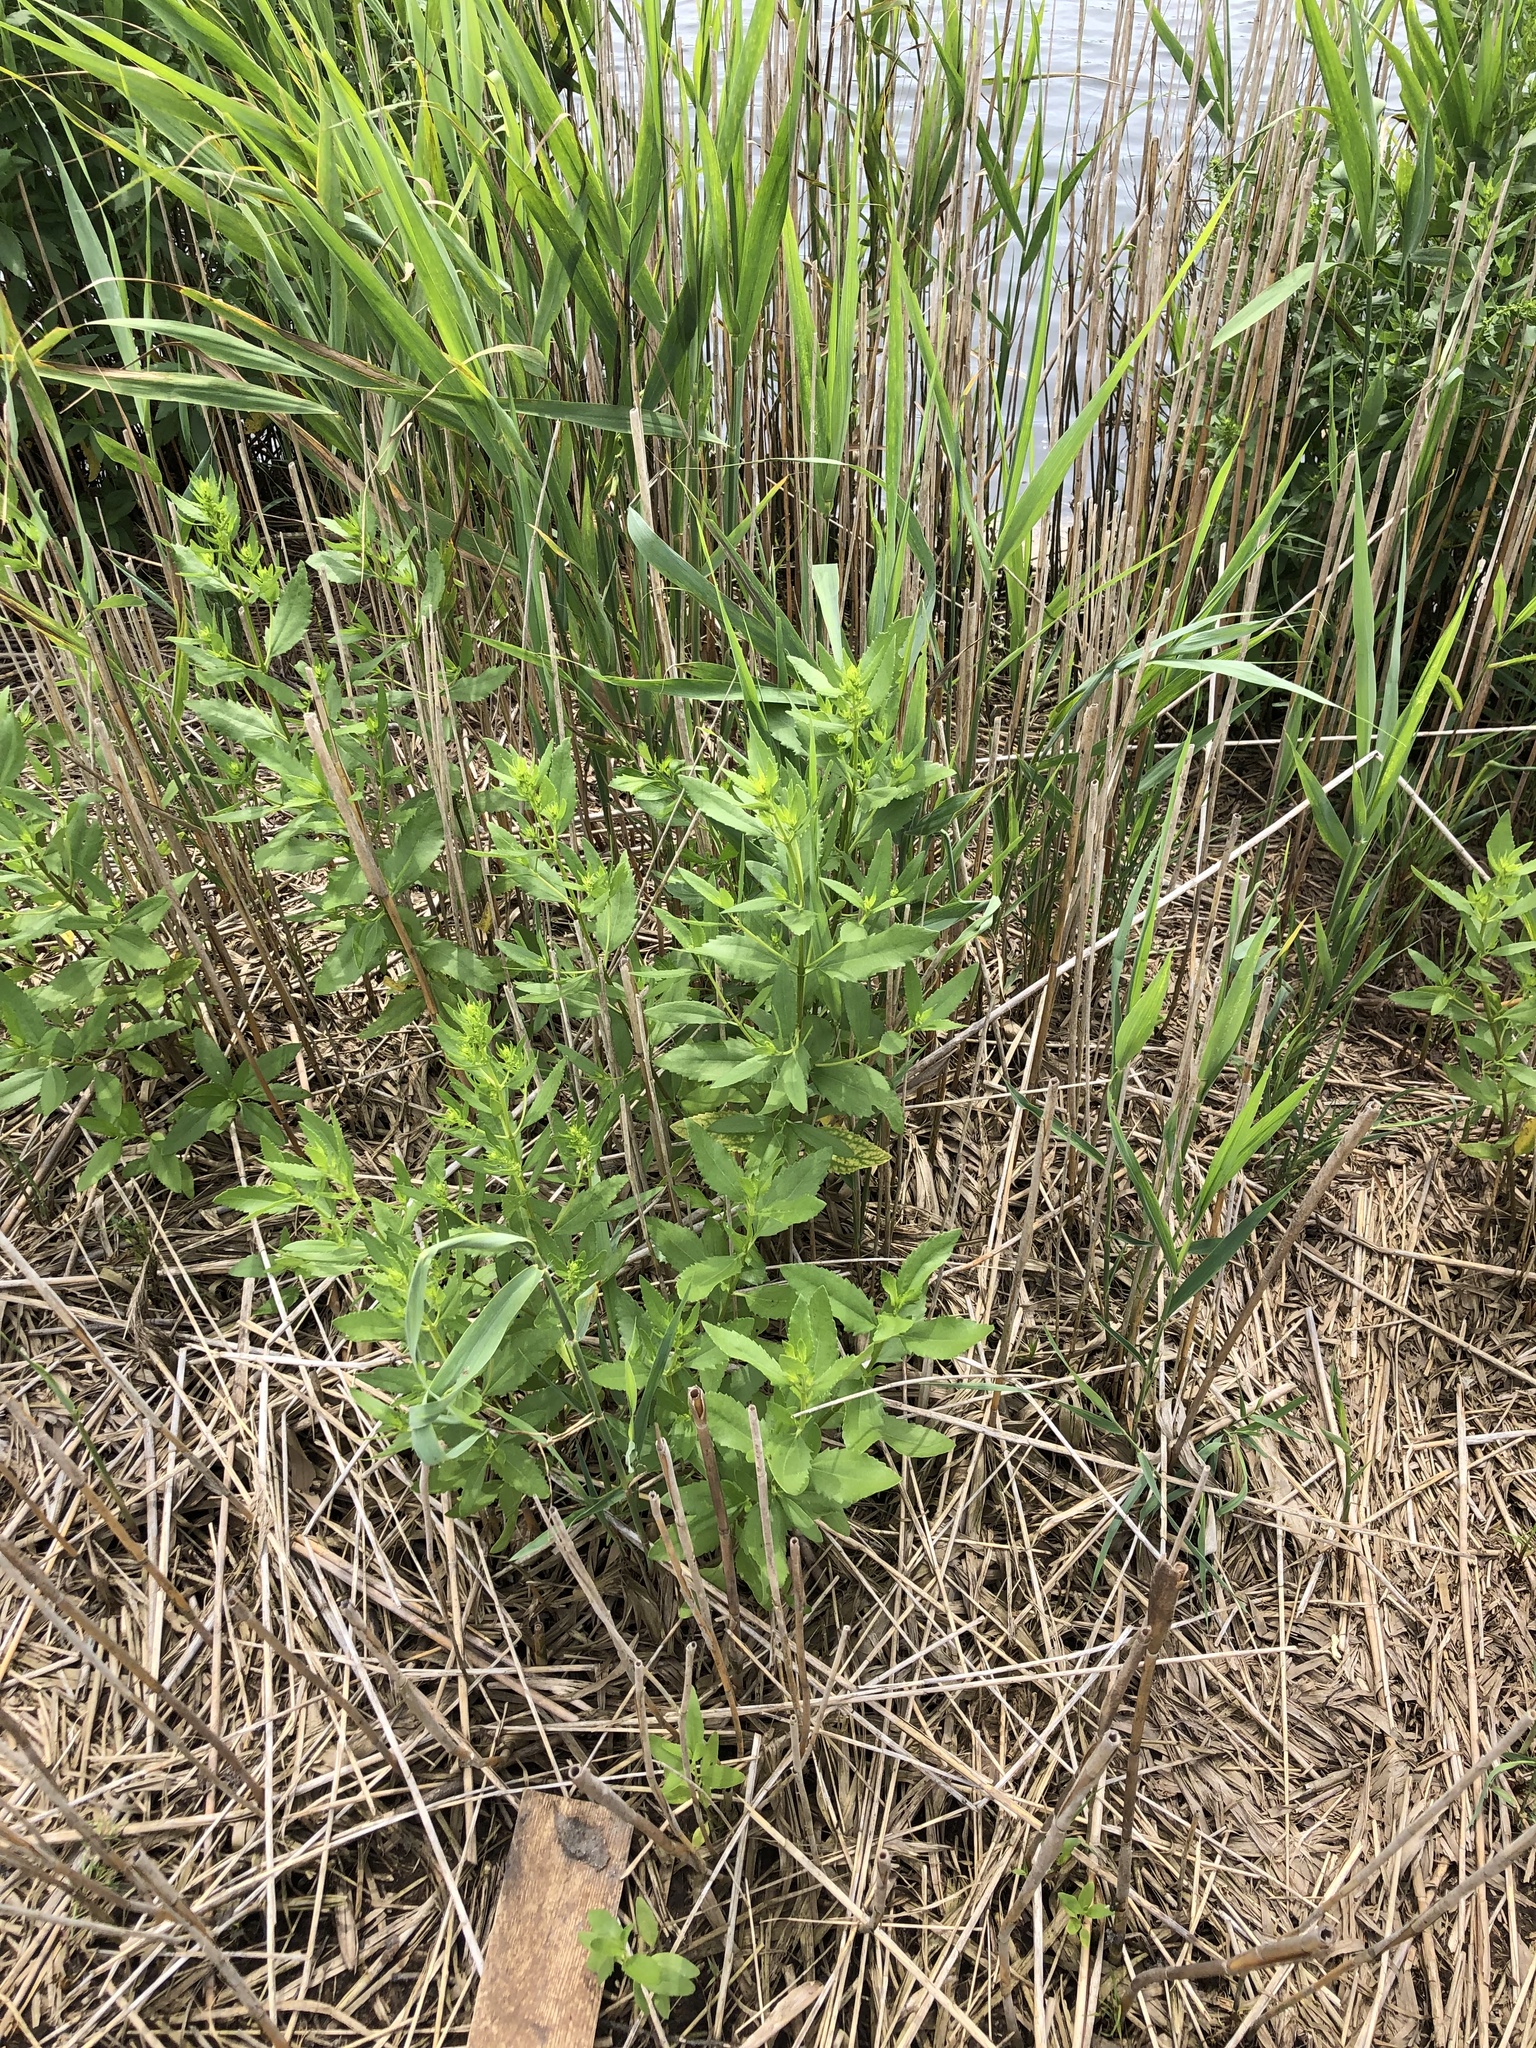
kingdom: Plantae
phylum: Tracheophyta
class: Magnoliopsida
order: Asterales
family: Asteraceae
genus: Iva
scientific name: Iva frutescens
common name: Big-leaved marsh-elder
